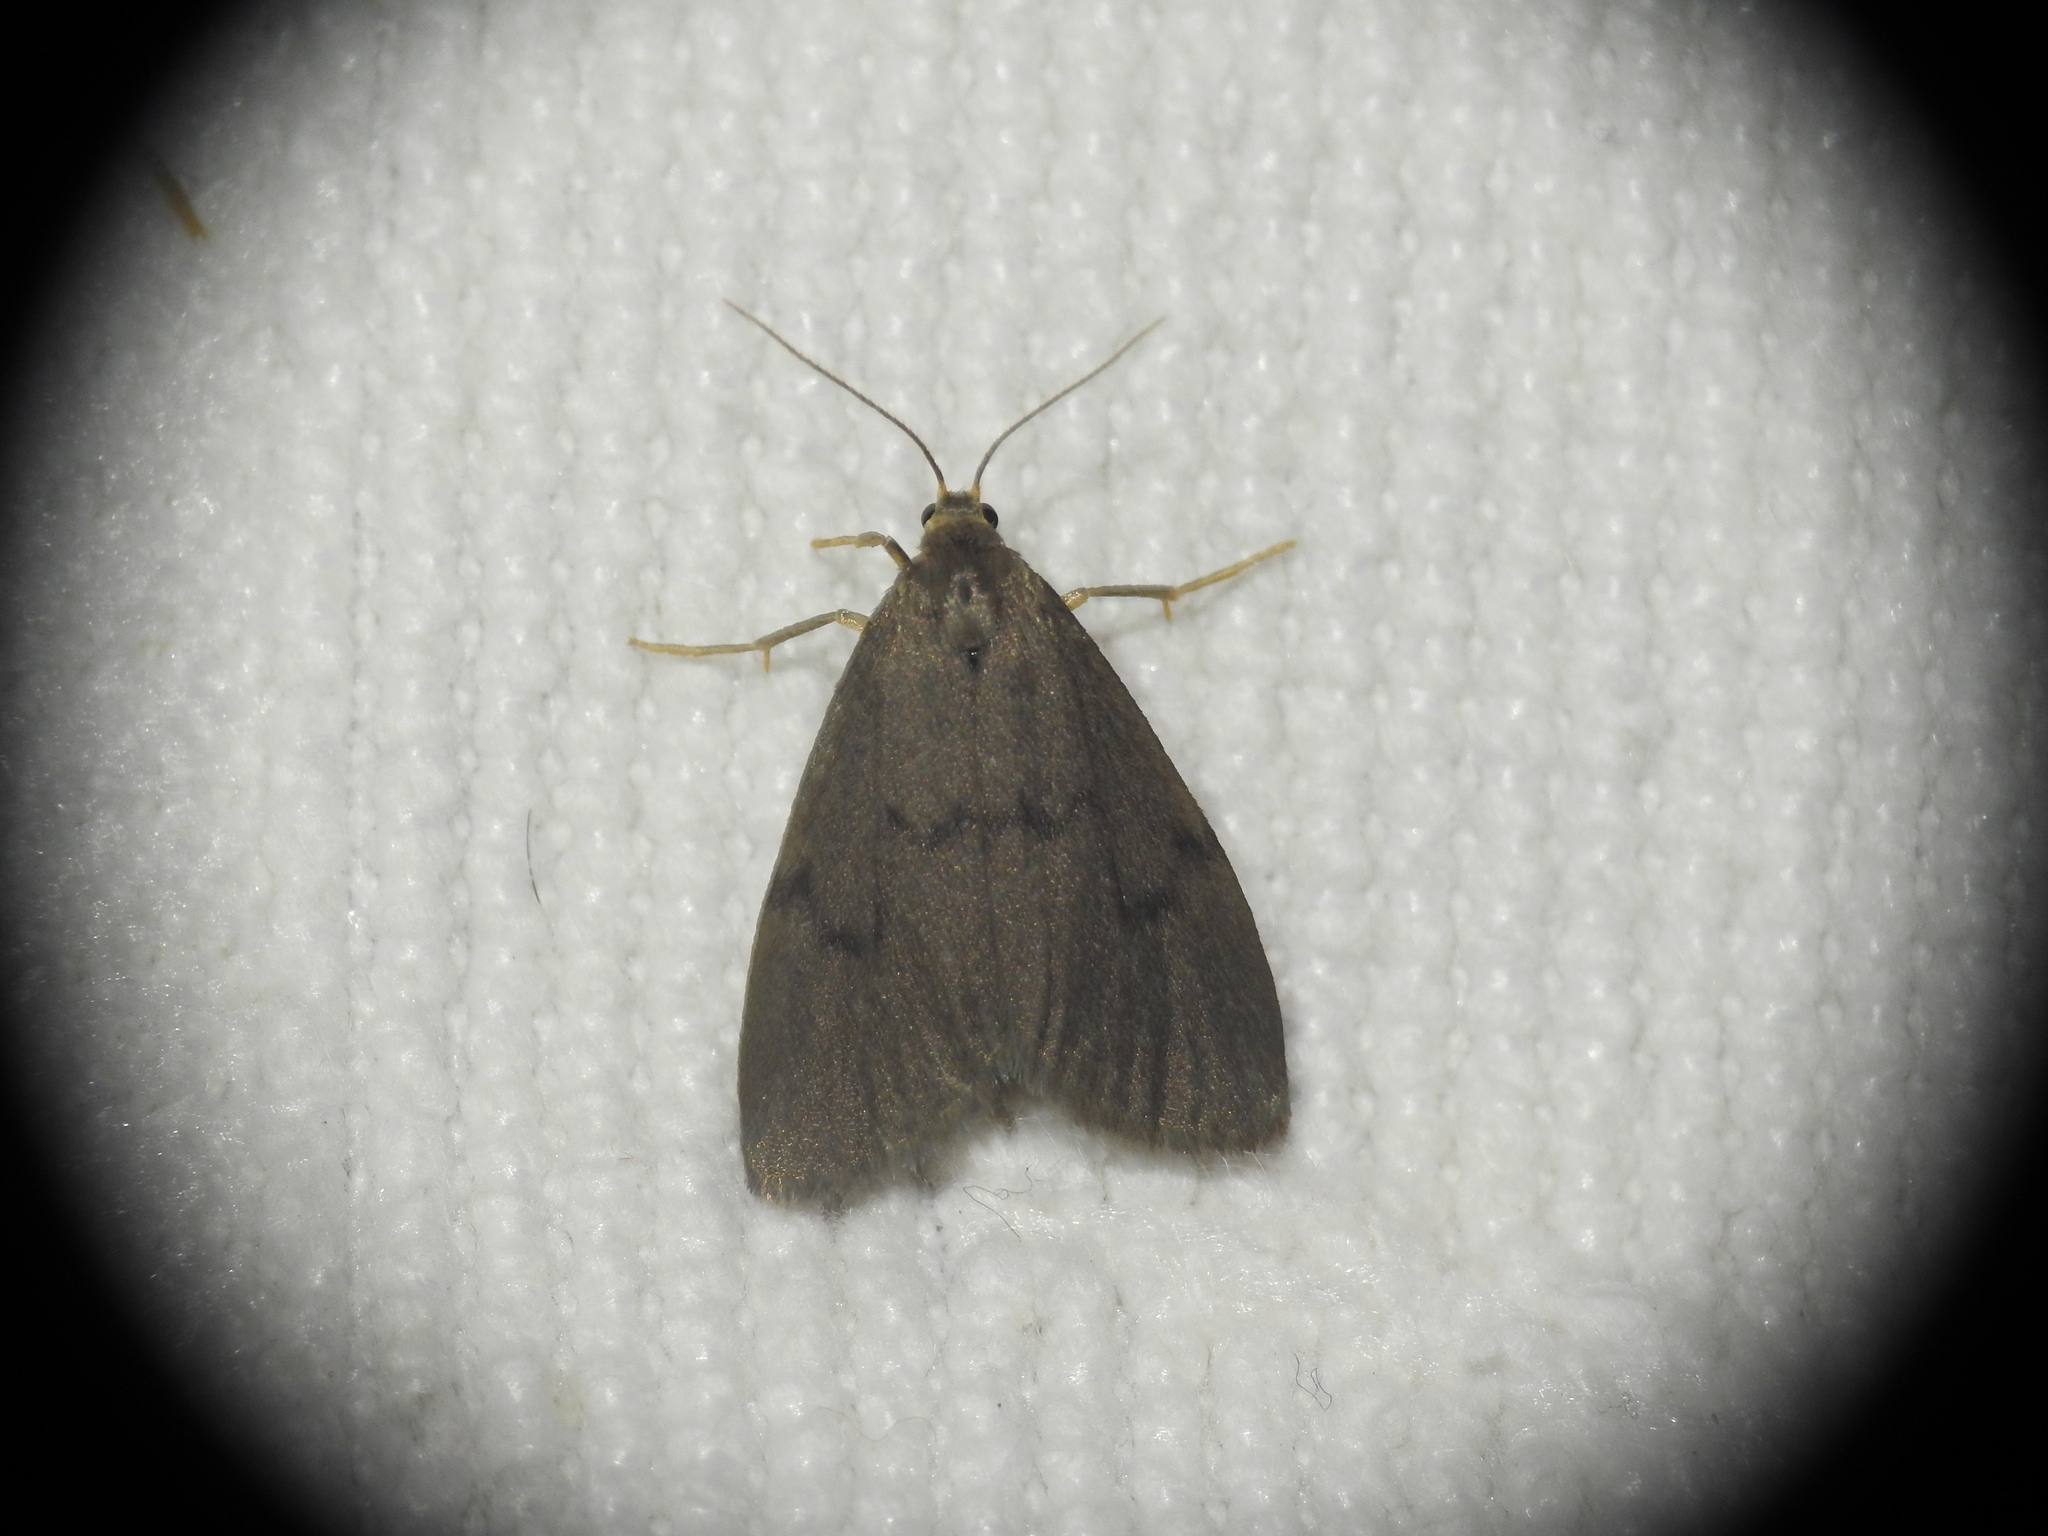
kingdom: Animalia
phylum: Arthropoda
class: Insecta
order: Lepidoptera
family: Erebidae
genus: Apaidia
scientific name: Apaidia mesogona
